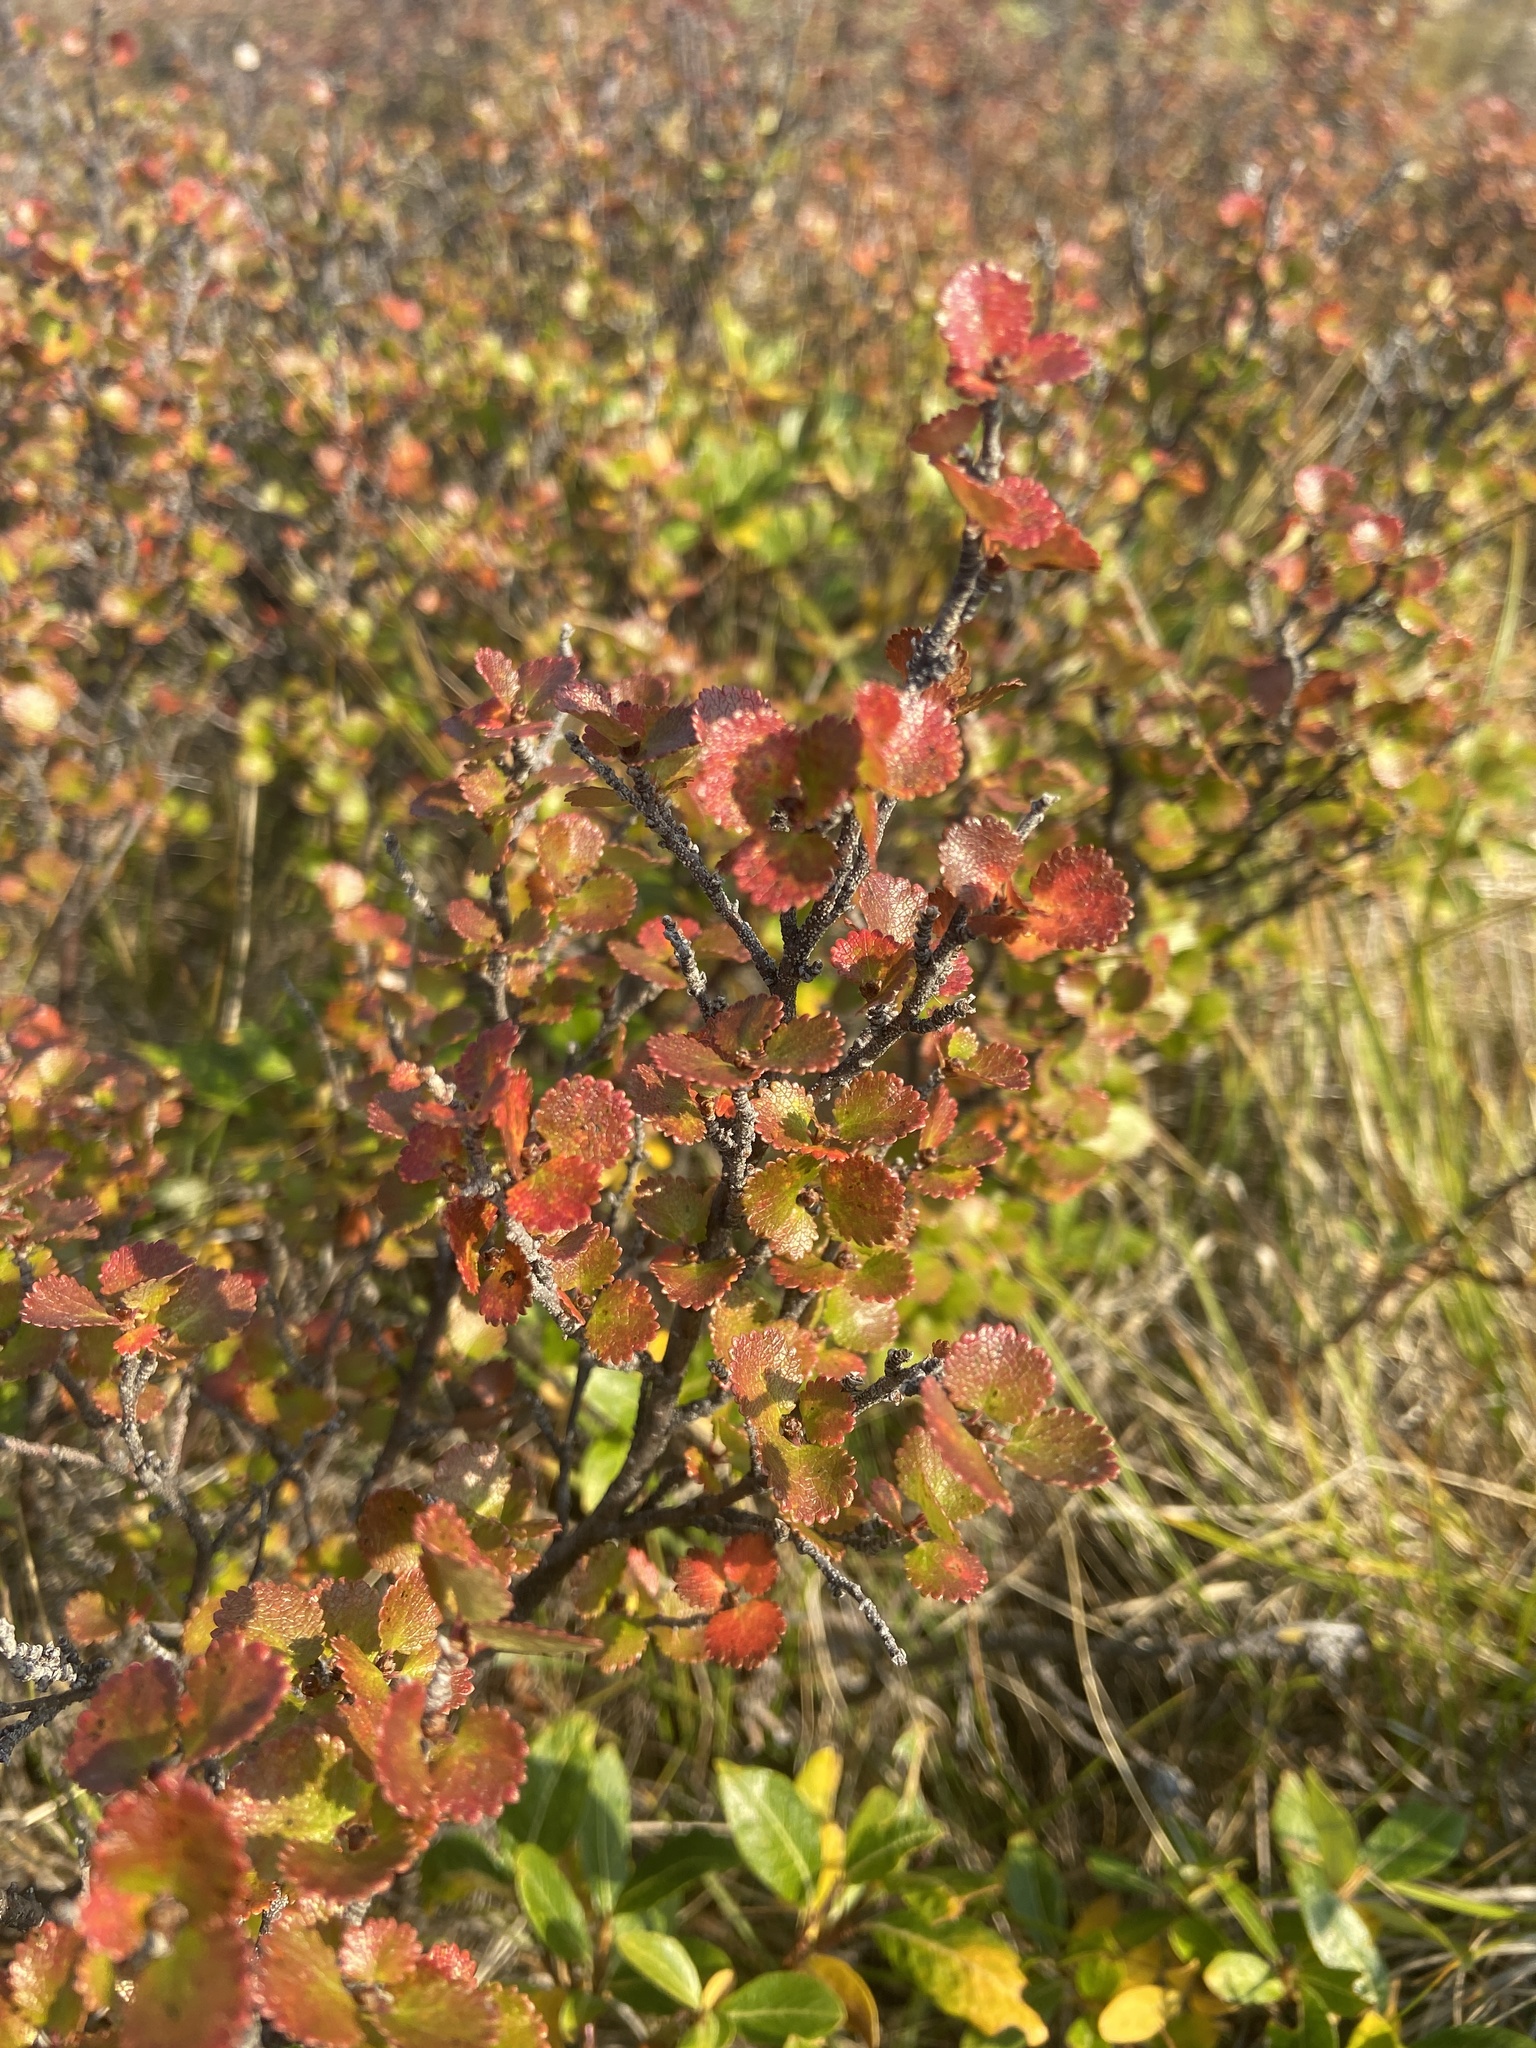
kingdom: Plantae
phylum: Tracheophyta
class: Magnoliopsida
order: Fagales
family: Betulaceae
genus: Betula
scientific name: Betula glandulosa
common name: Dwarf birch
